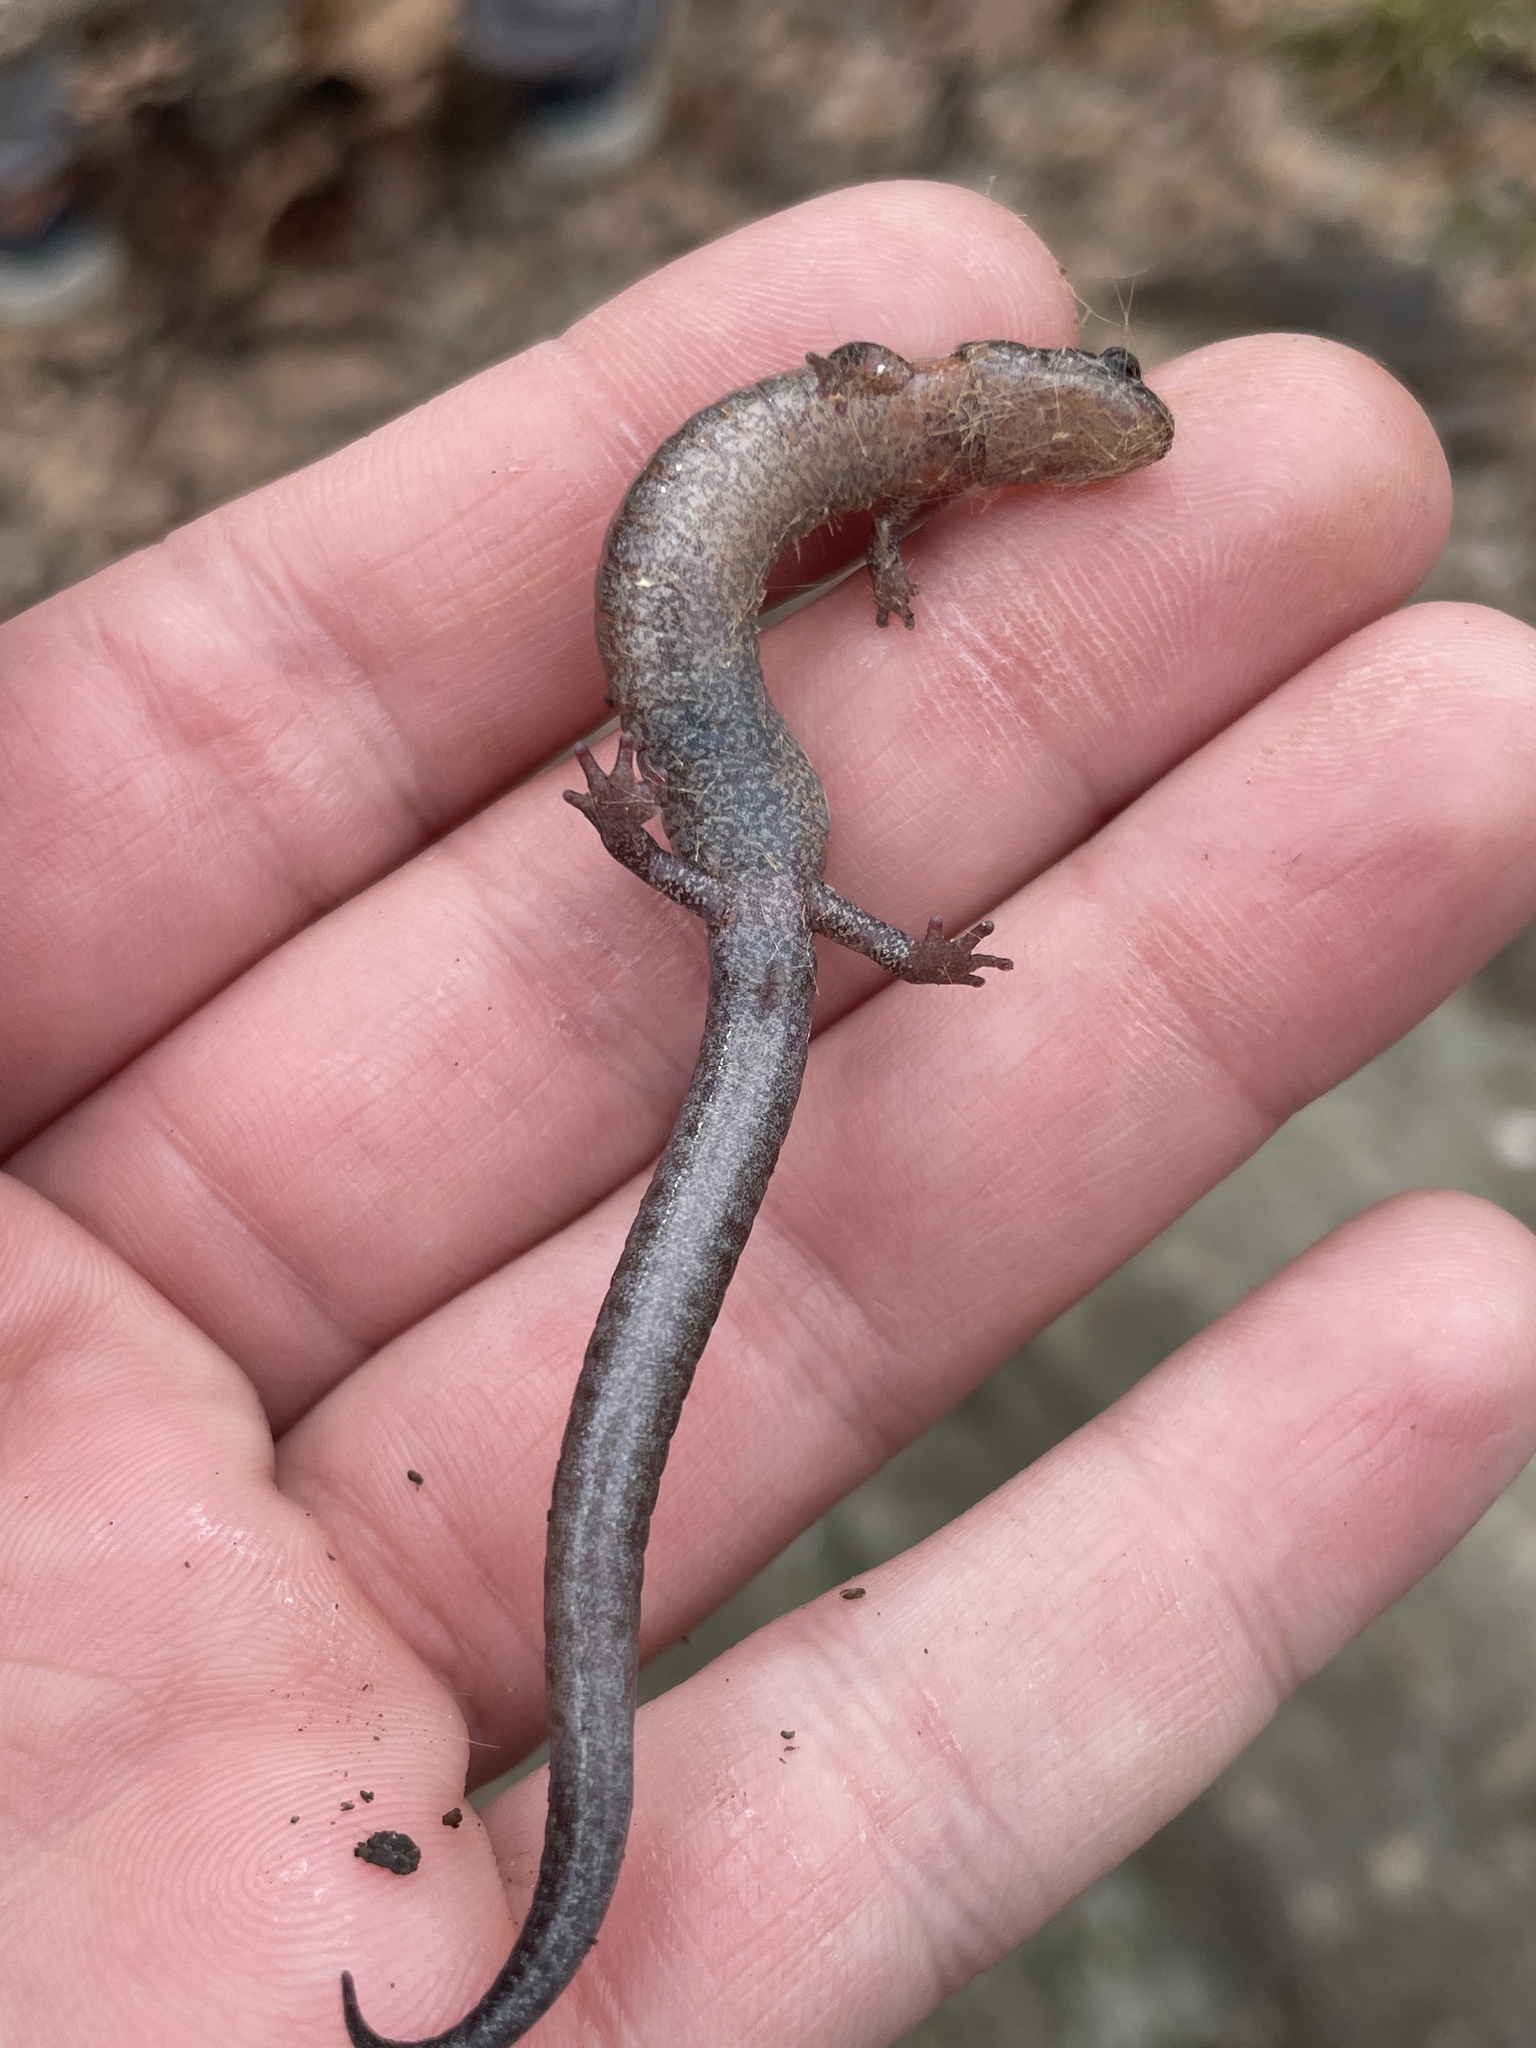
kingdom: Animalia
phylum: Chordata
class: Amphibia
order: Caudata
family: Plethodontidae
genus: Plethodon
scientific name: Plethodon dorsalis
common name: Northern zigzag salamander
